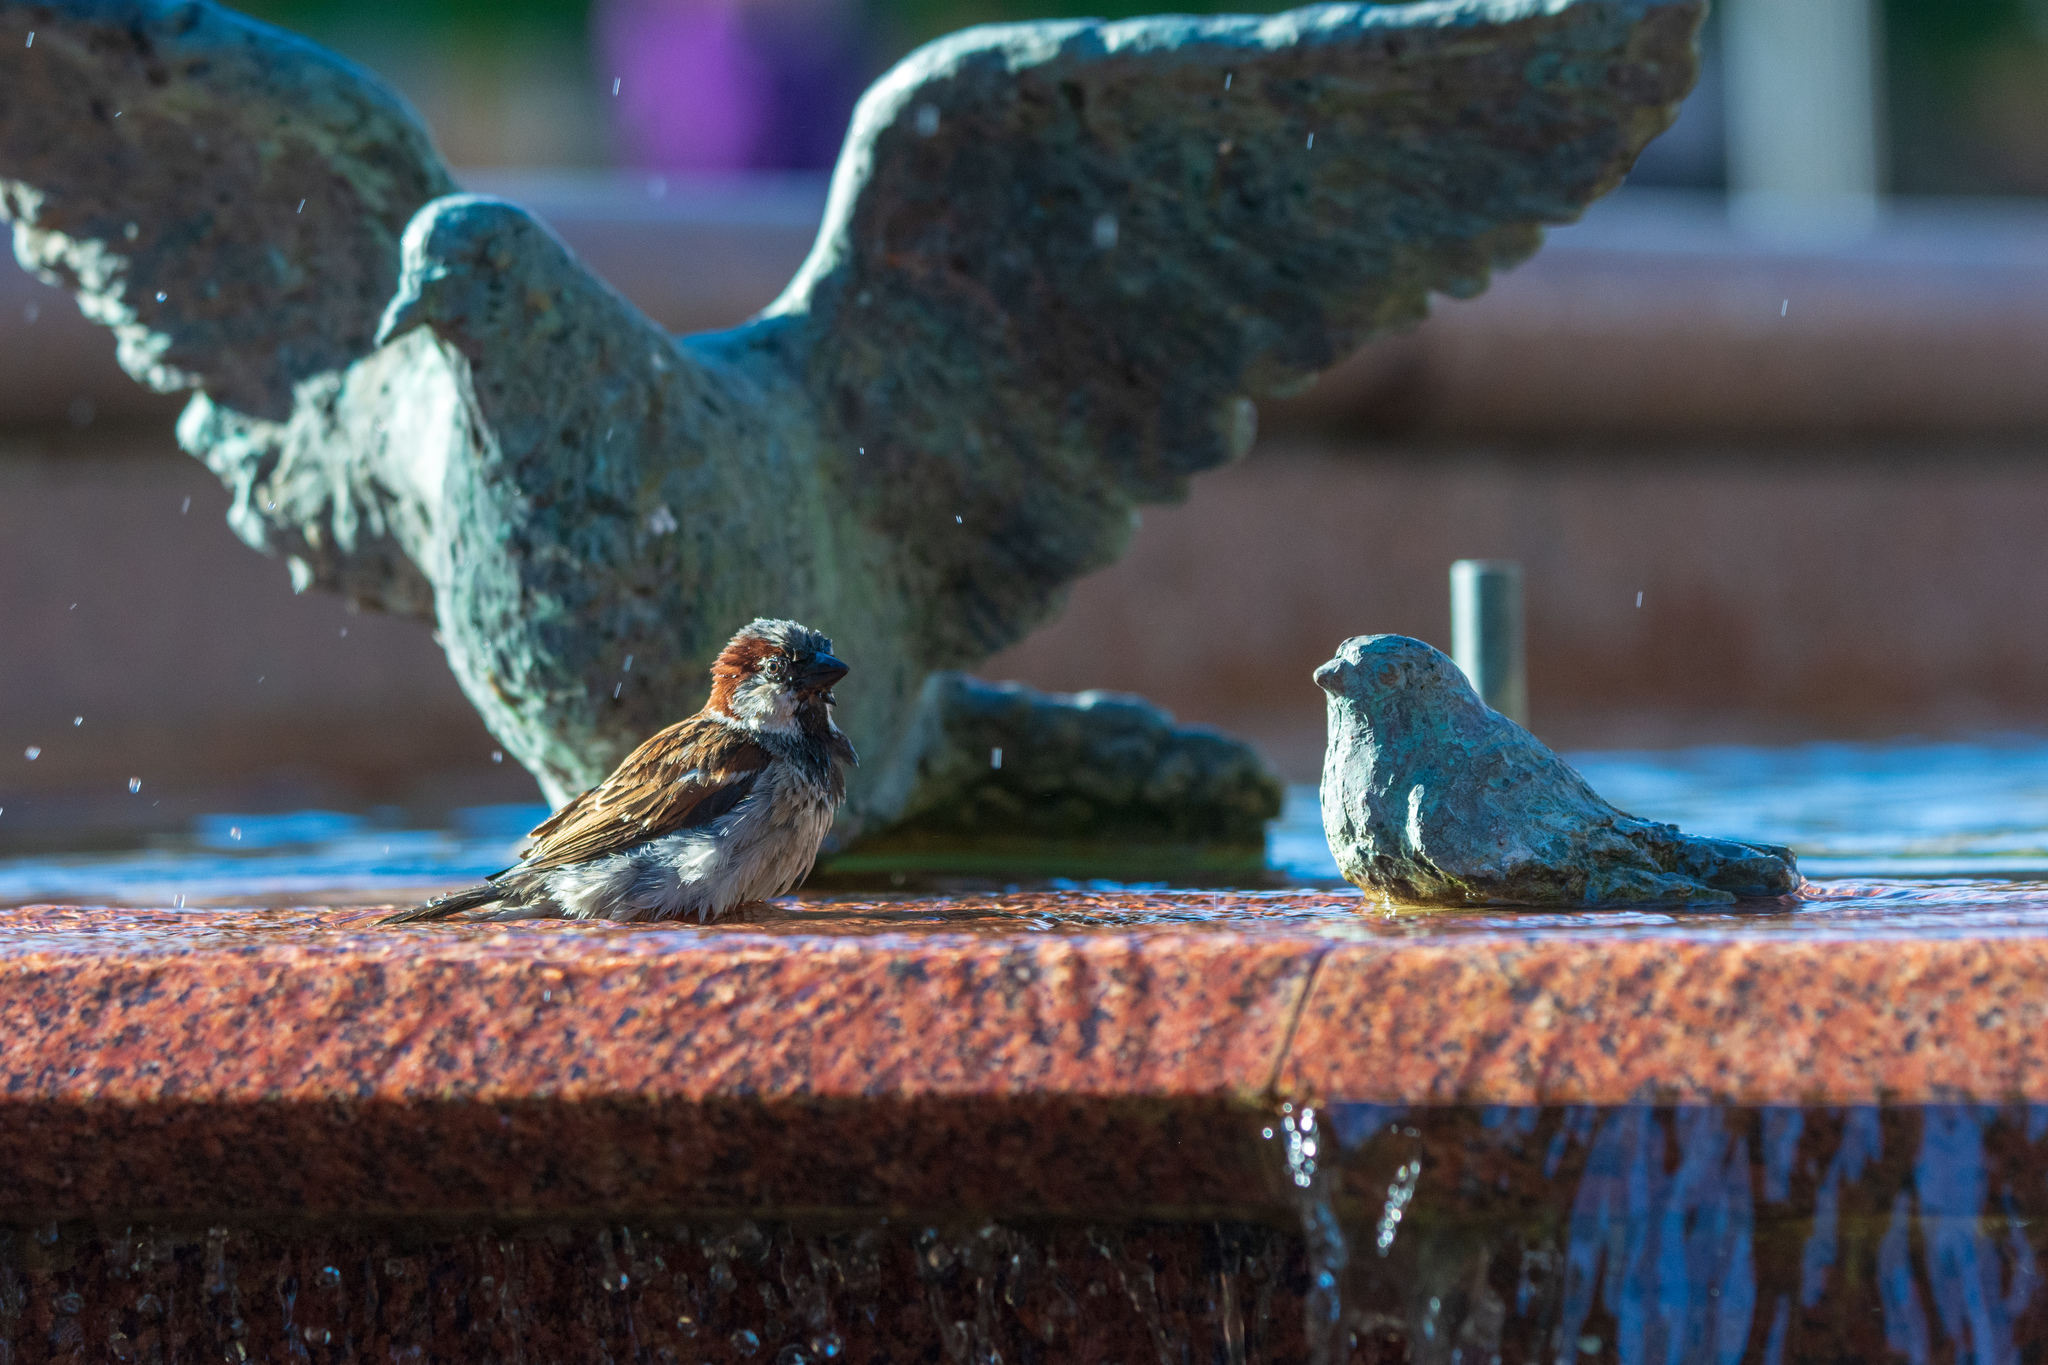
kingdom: Animalia
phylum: Chordata
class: Aves
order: Passeriformes
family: Passeridae
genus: Passer
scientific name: Passer domesticus
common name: House sparrow
